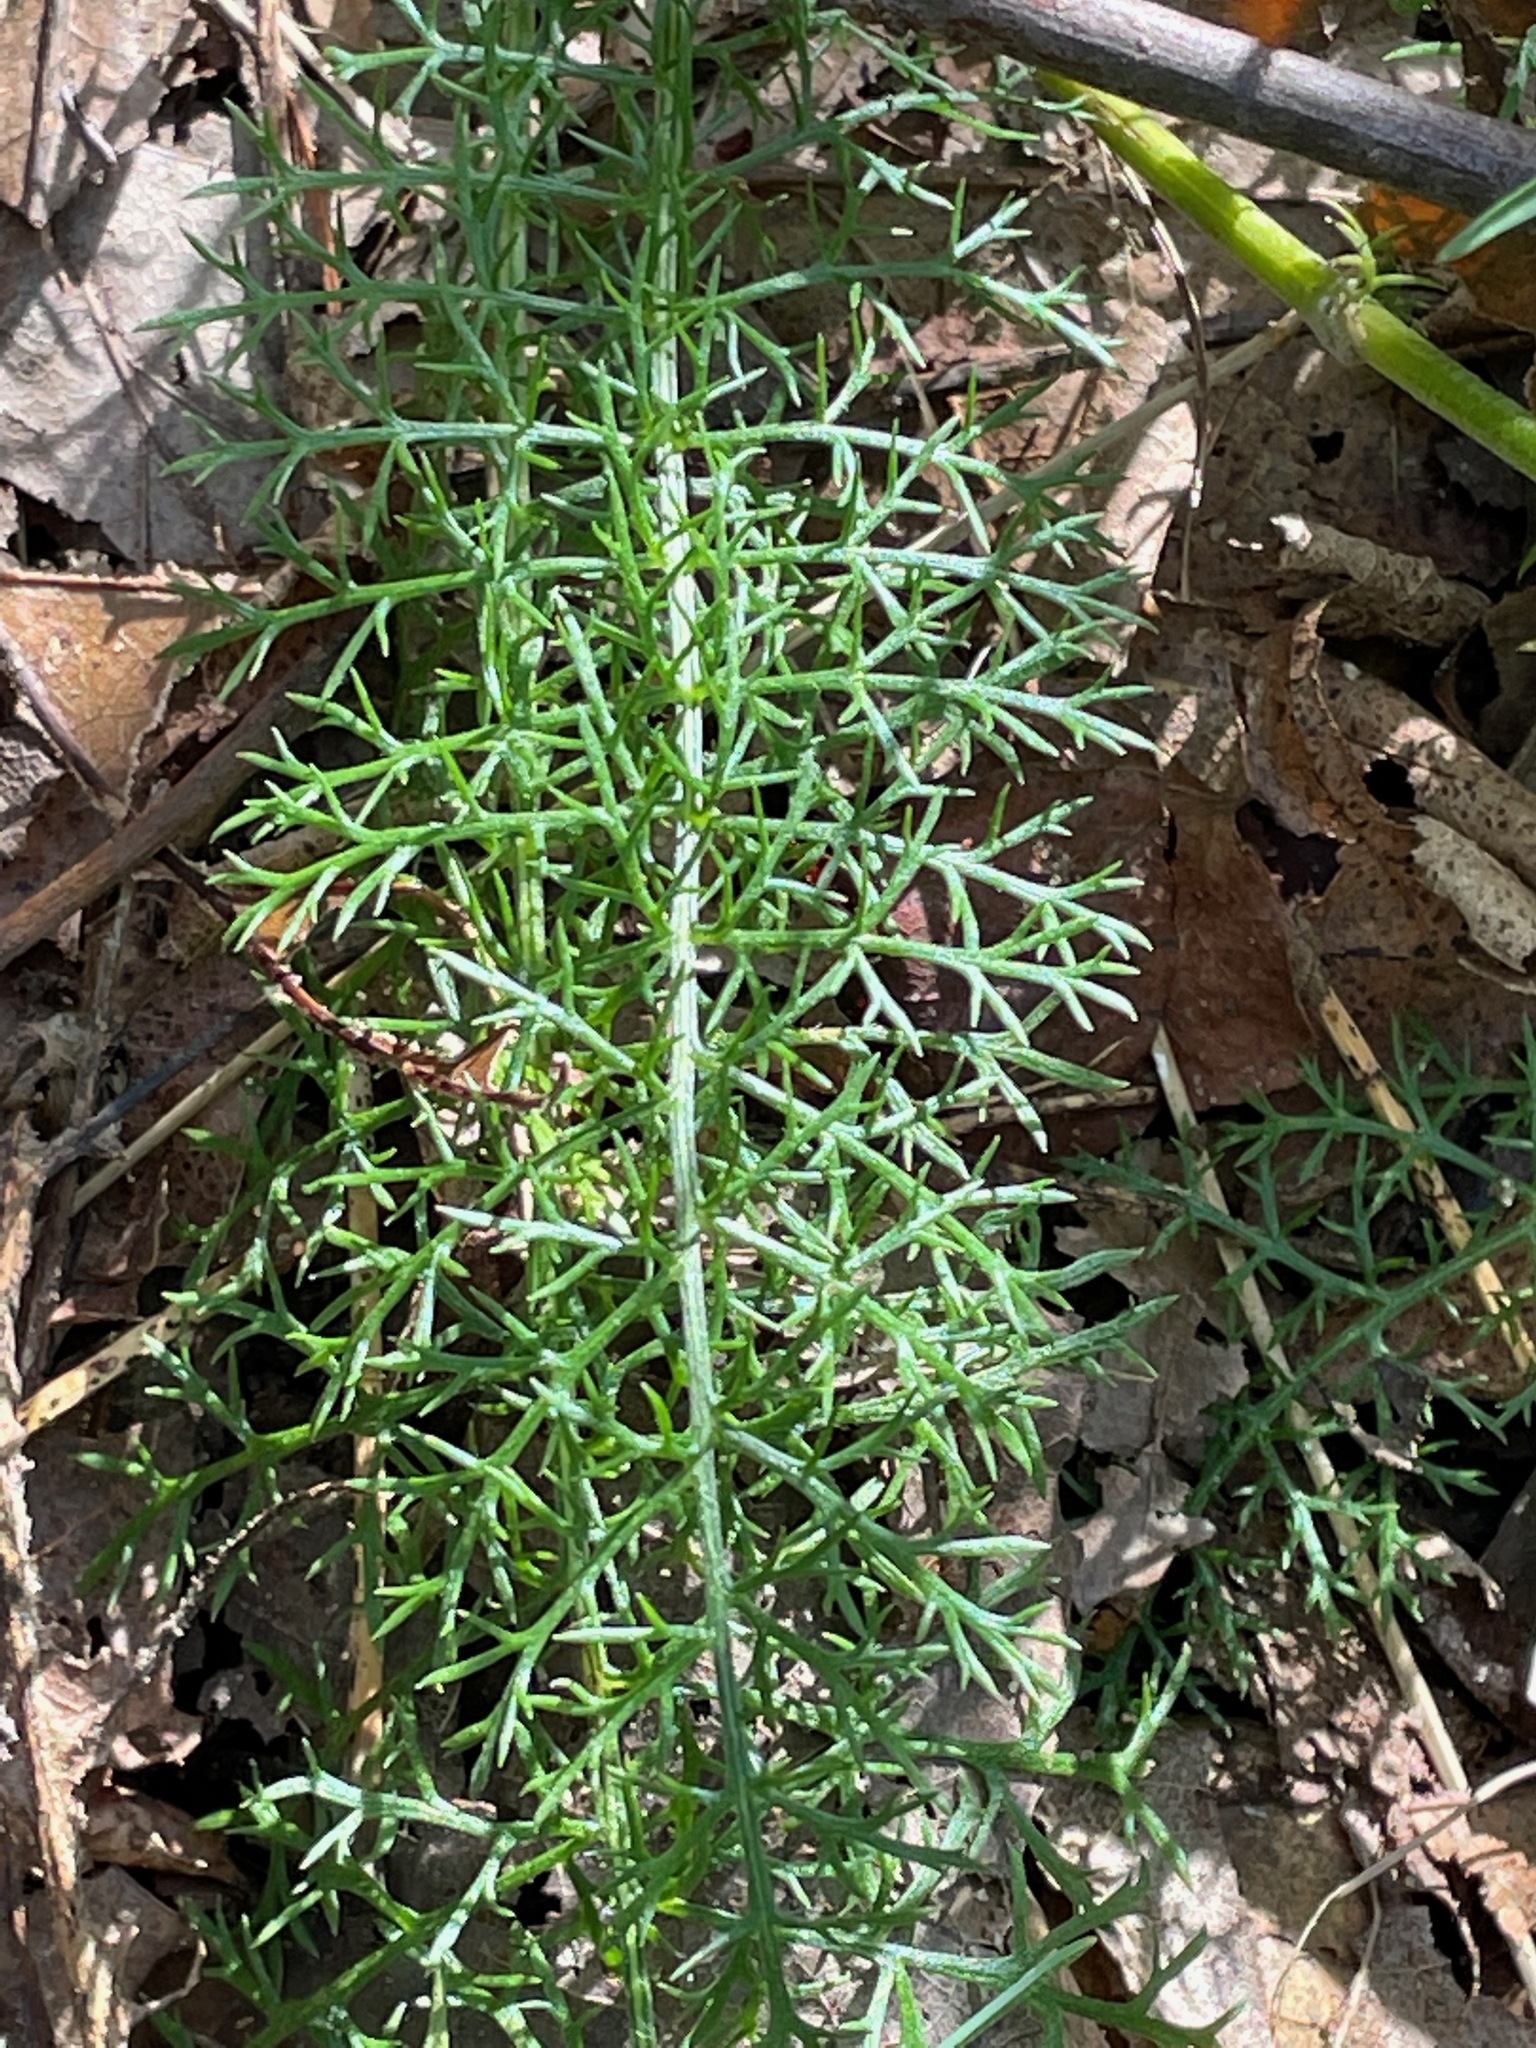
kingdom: Plantae
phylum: Tracheophyta
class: Magnoliopsida
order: Asterales
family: Asteraceae
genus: Achillea
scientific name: Achillea millefolium
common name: Yarrow
